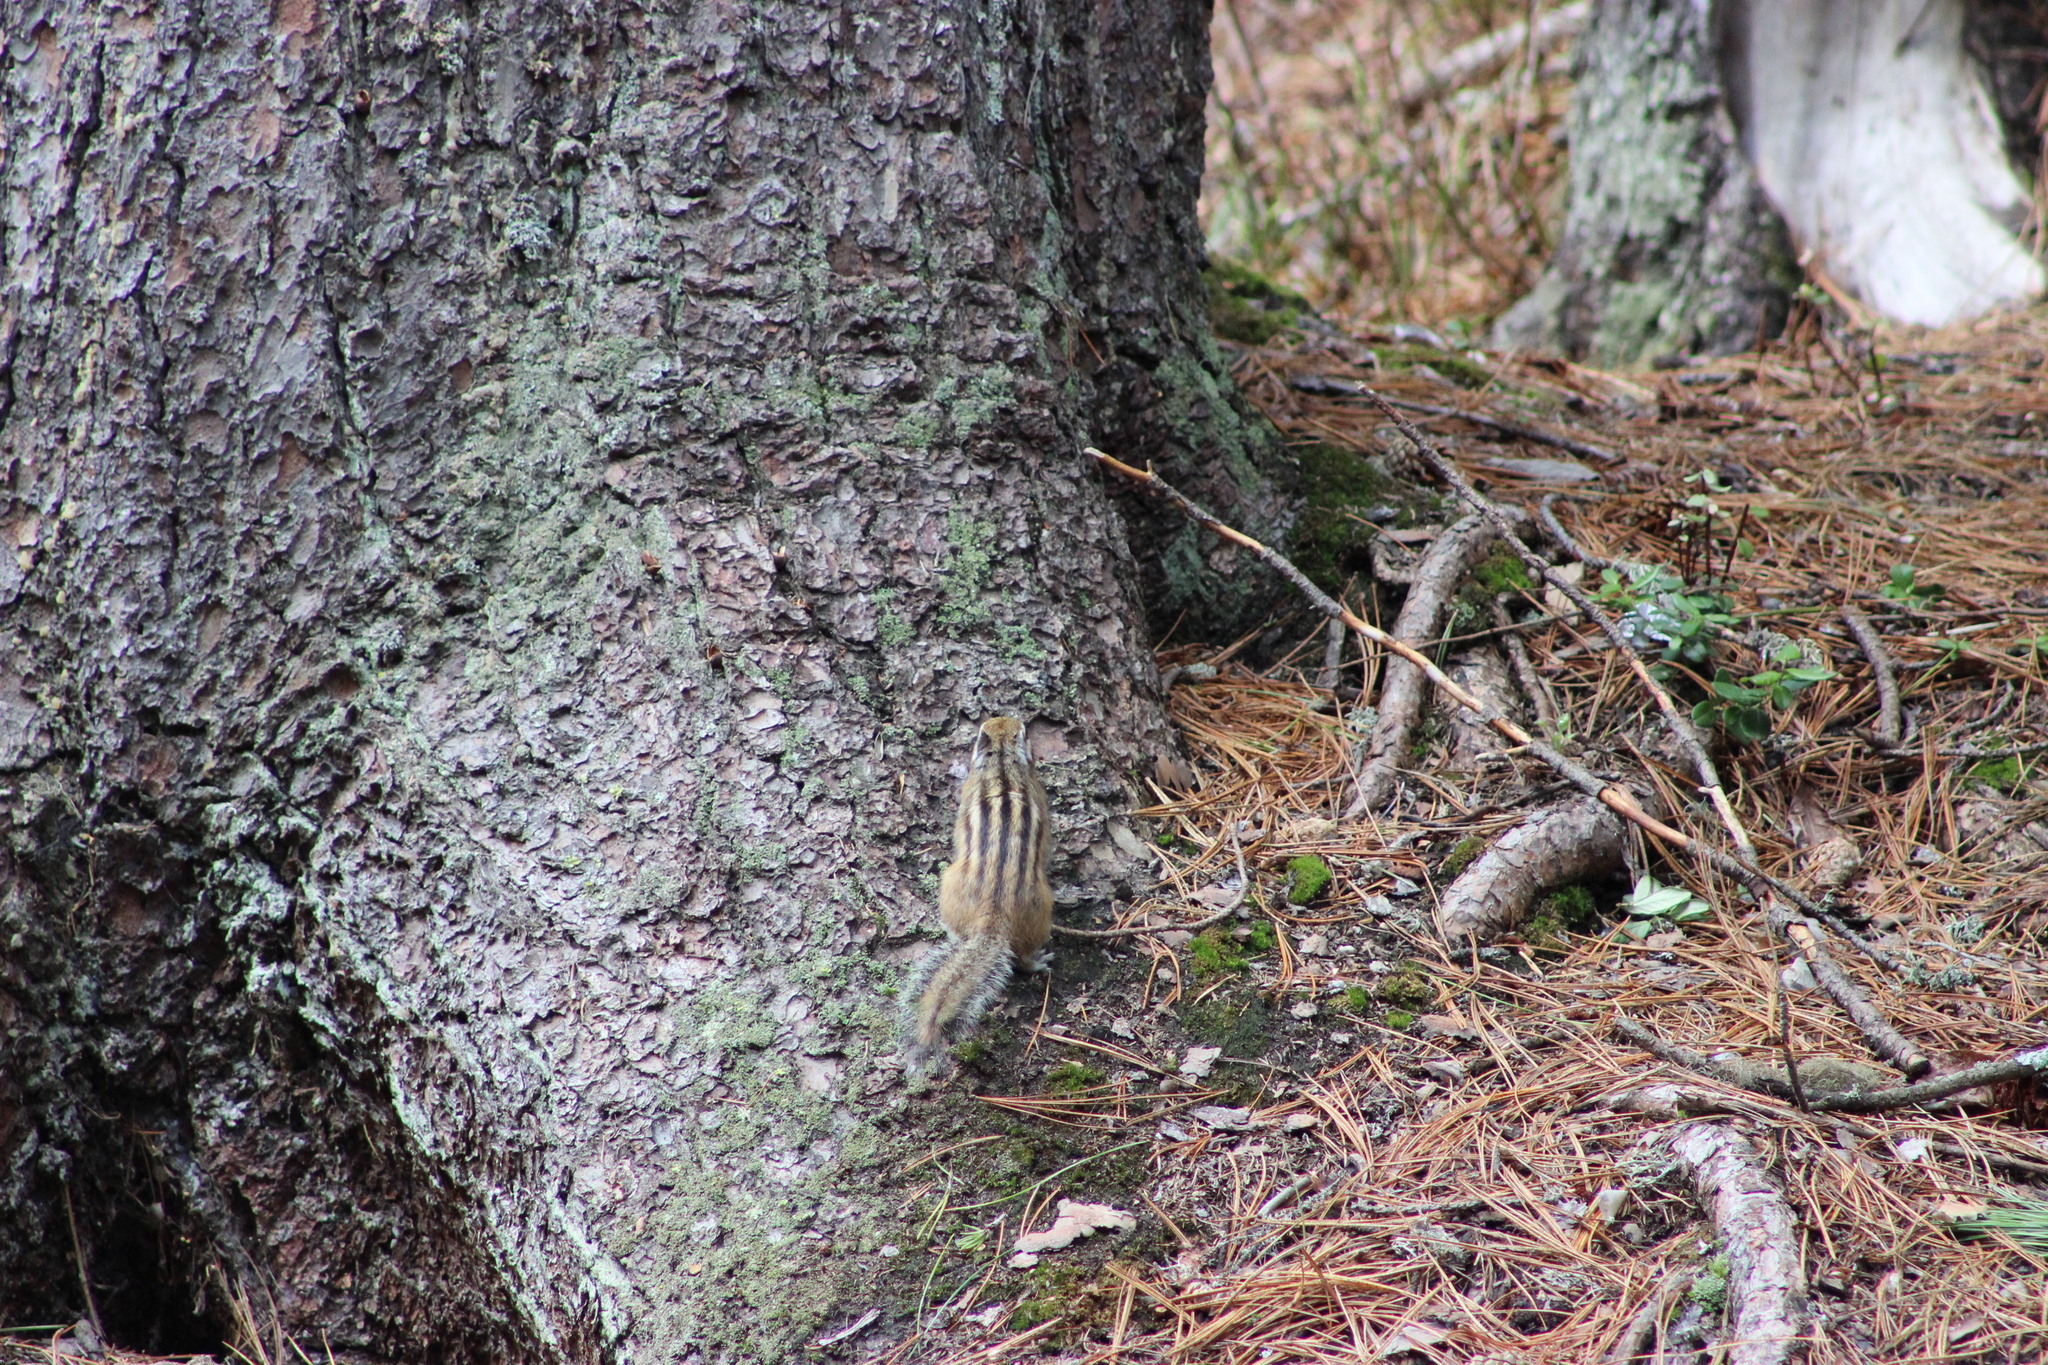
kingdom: Animalia
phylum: Chordata
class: Mammalia
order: Rodentia
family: Sciuridae
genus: Tamias
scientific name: Tamias sibiricus
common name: Siberian chipmunk
